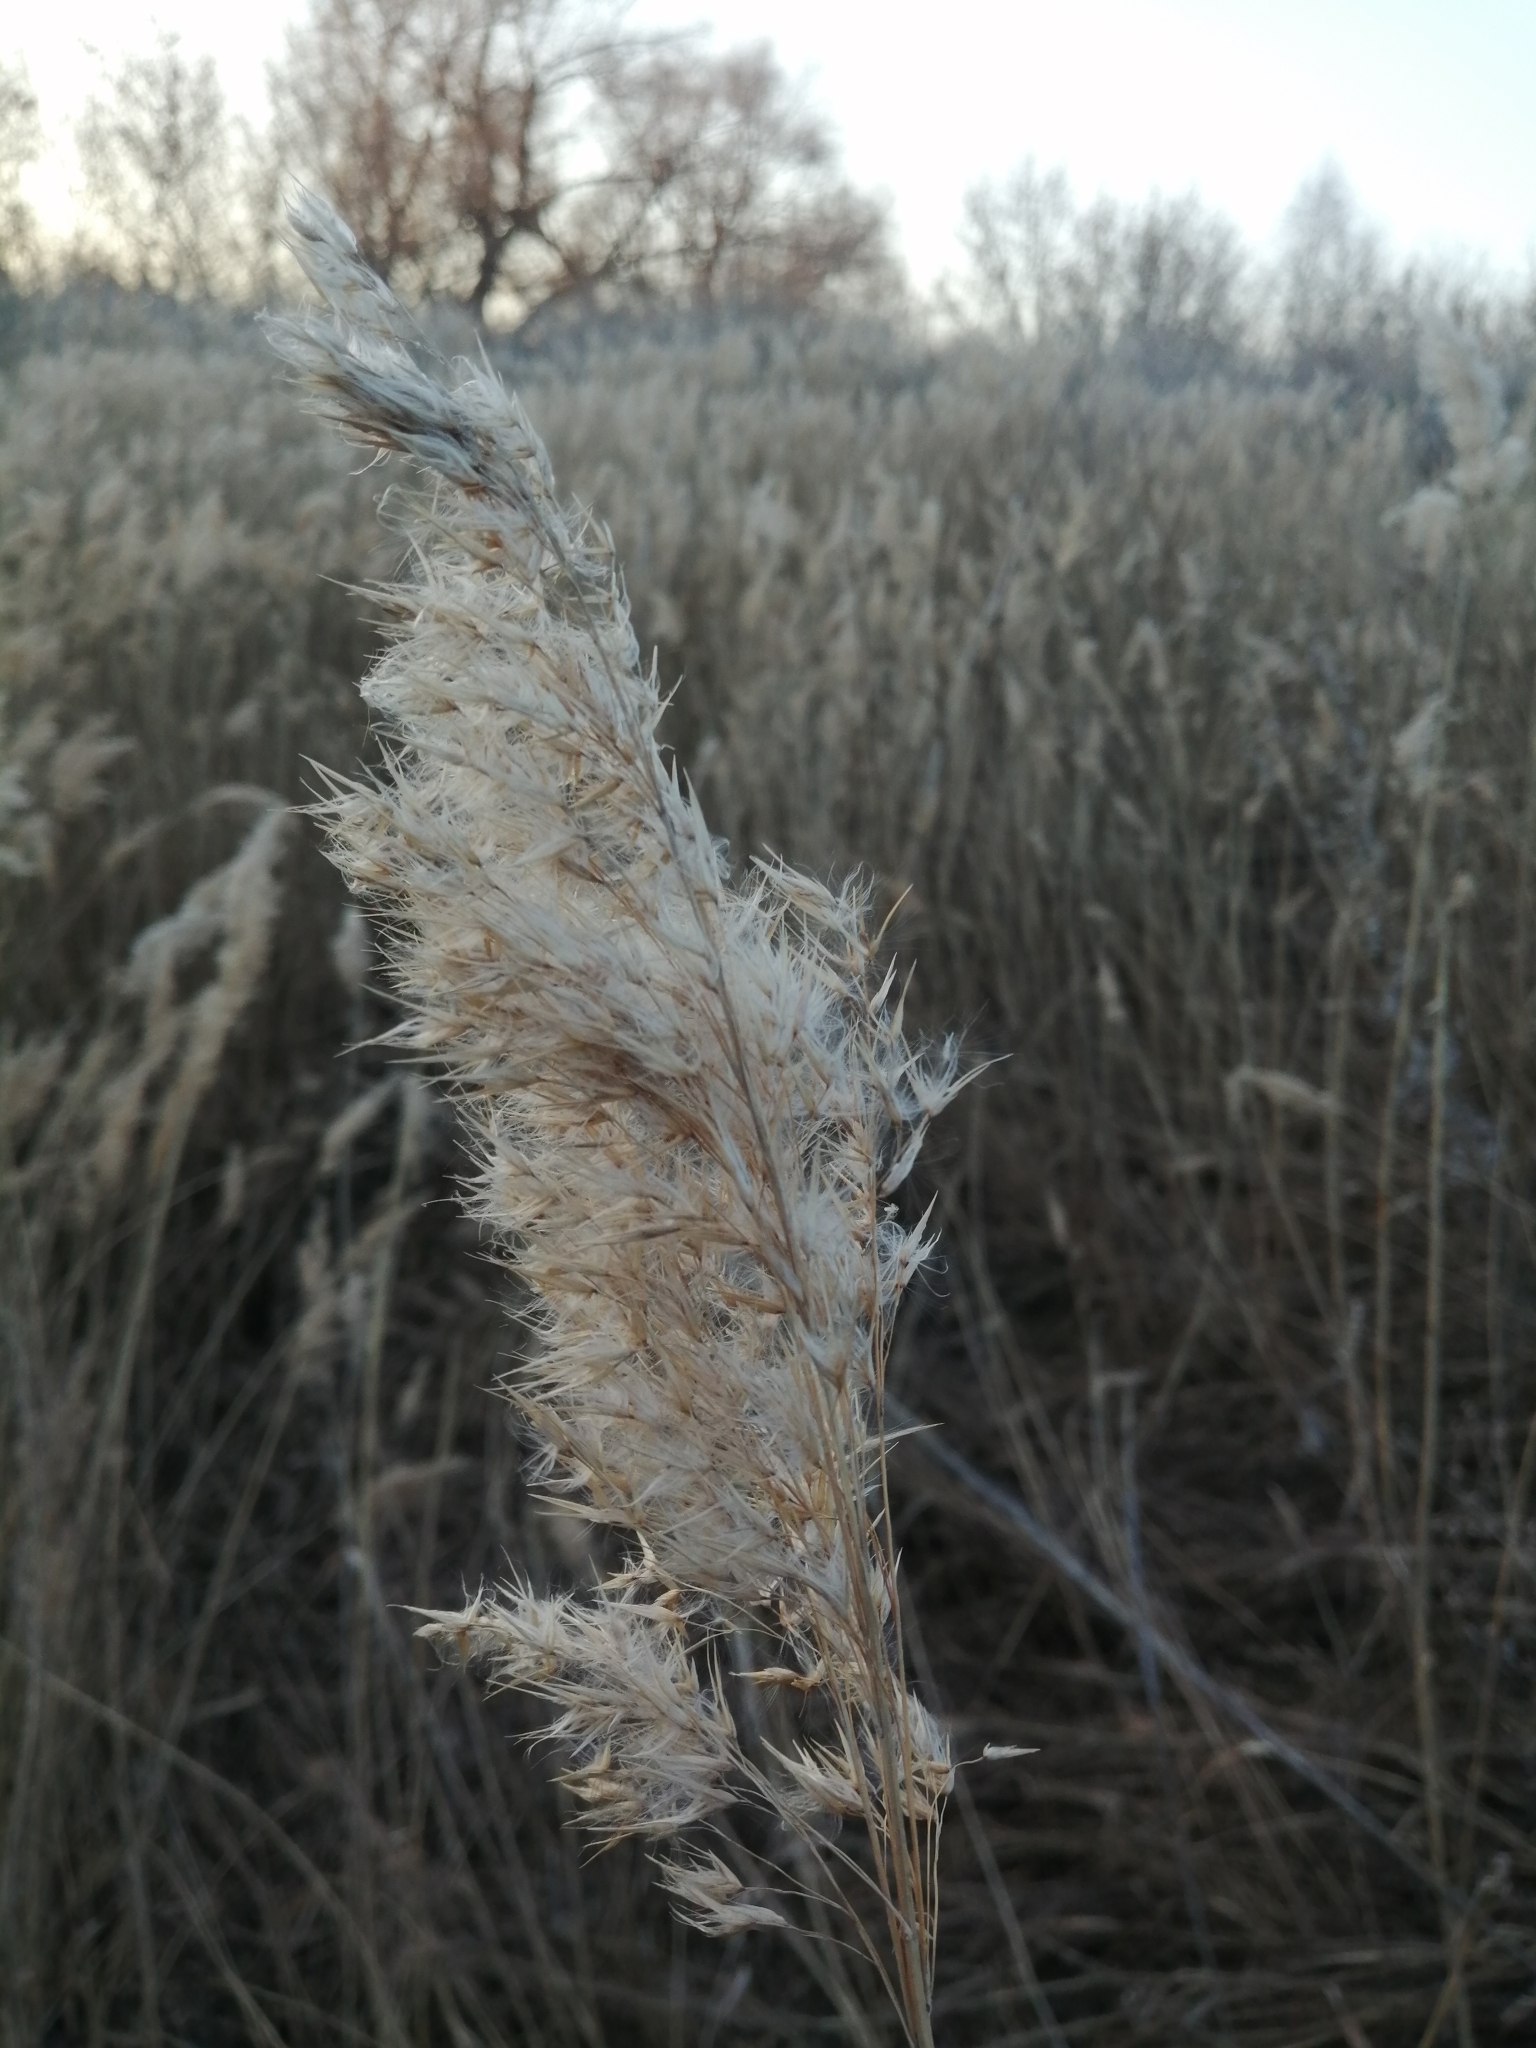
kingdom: Plantae
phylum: Tracheophyta
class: Liliopsida
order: Poales
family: Poaceae
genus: Phragmites
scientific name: Phragmites australis
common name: Common reed
